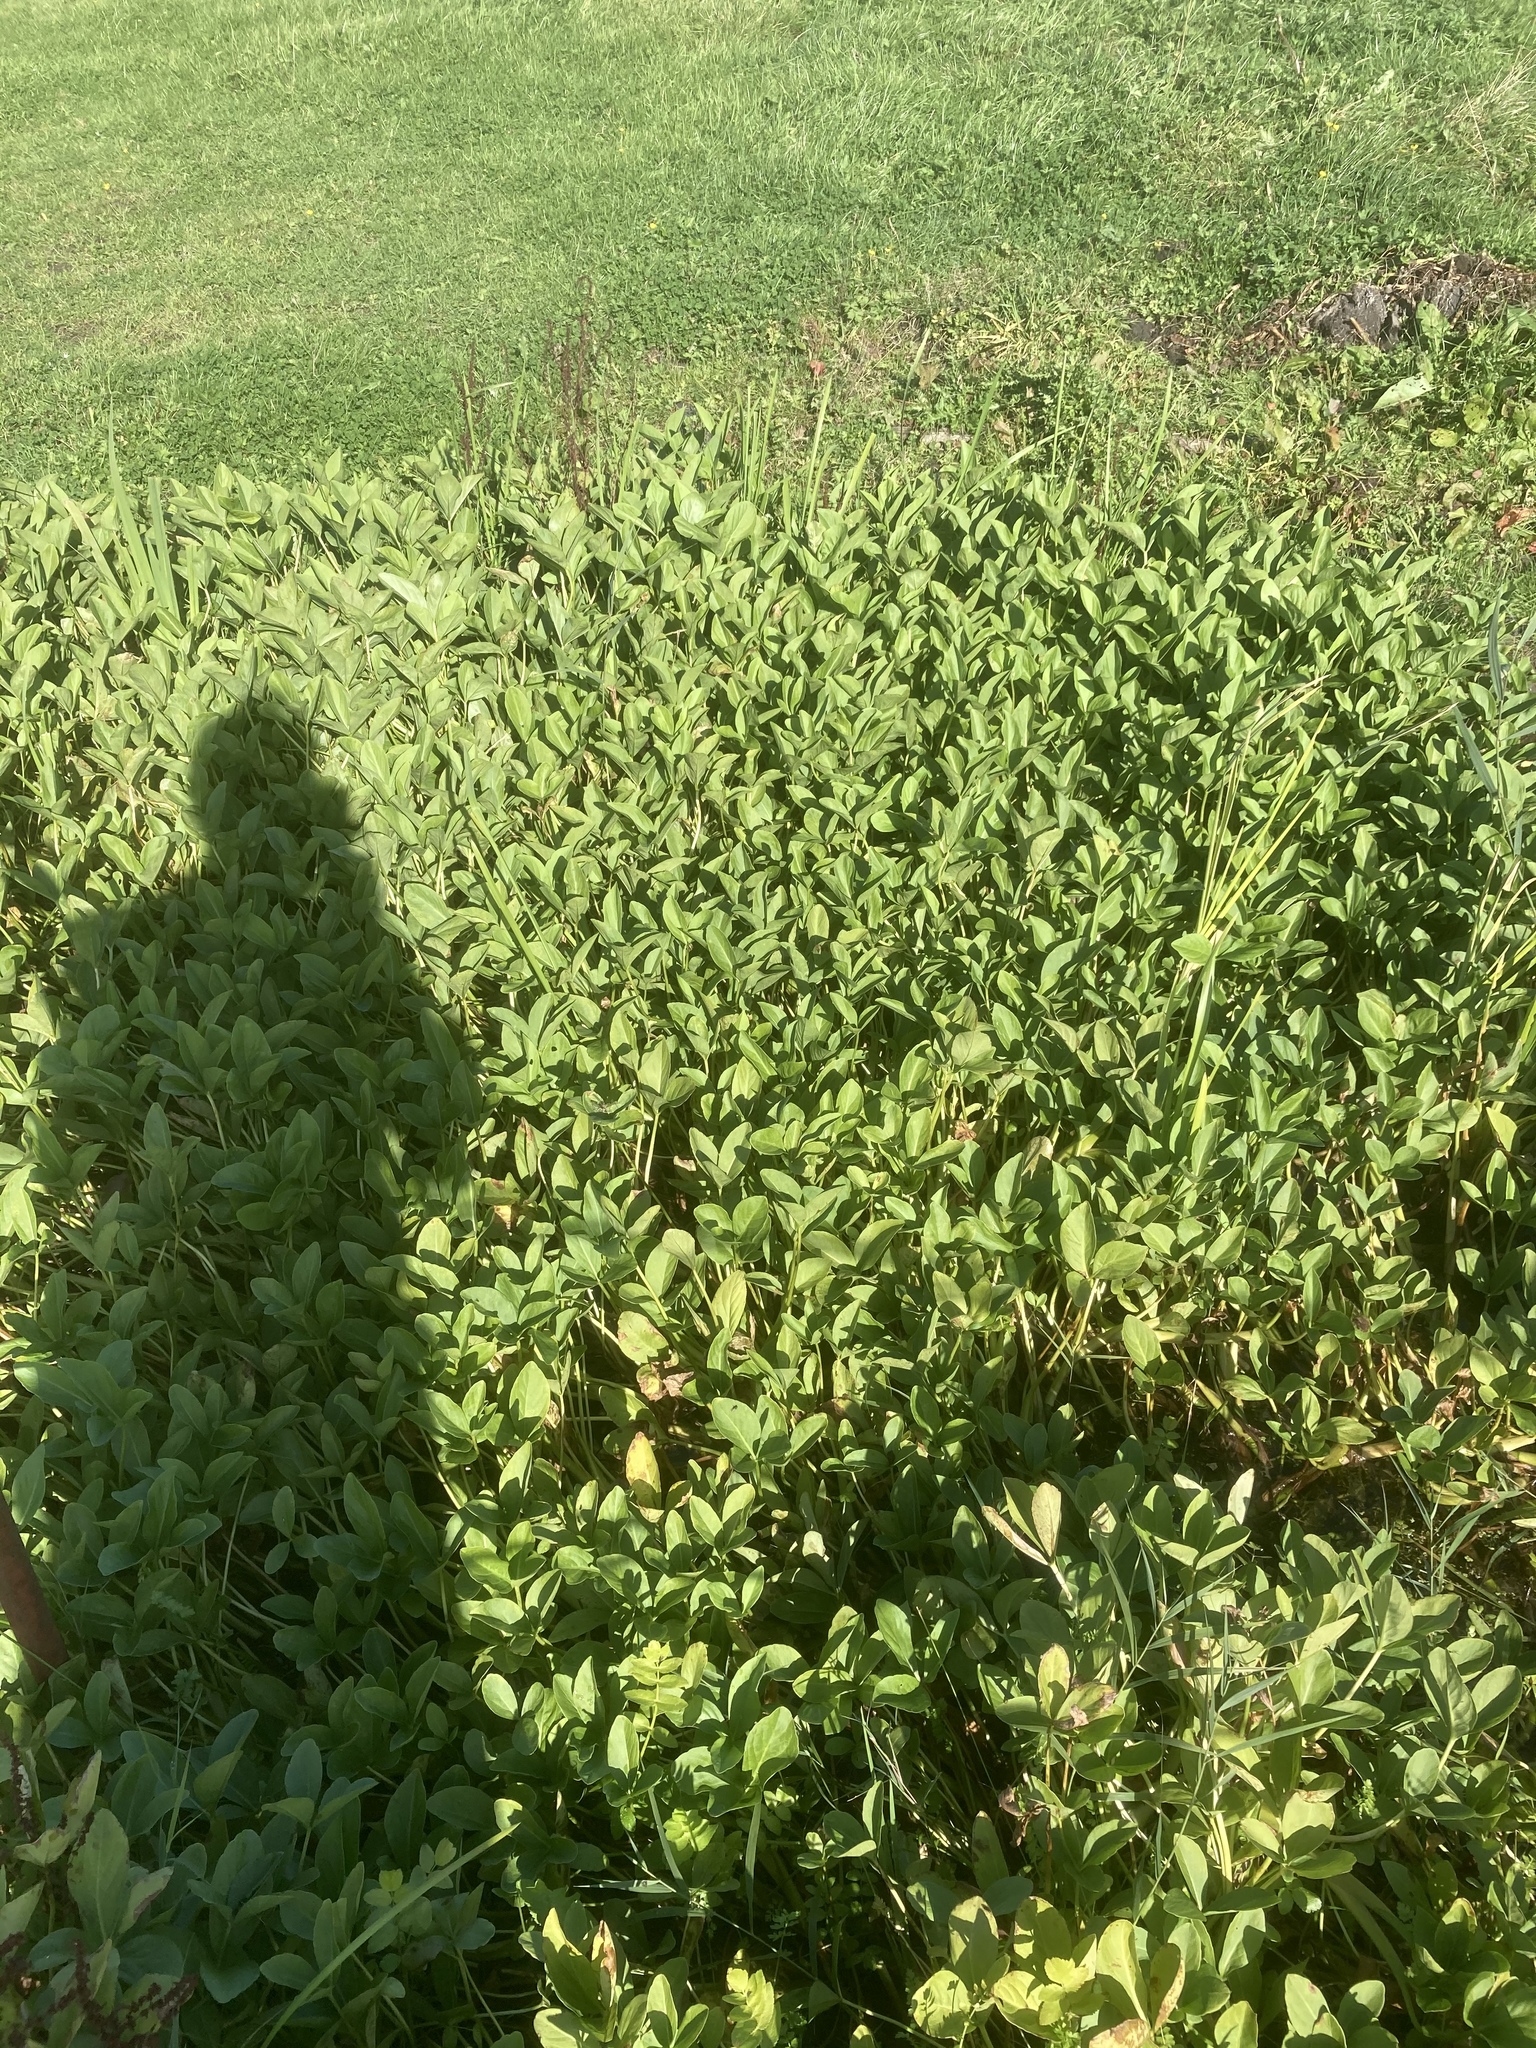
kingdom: Plantae
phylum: Tracheophyta
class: Magnoliopsida
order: Asterales
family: Menyanthaceae
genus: Menyanthes
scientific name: Menyanthes trifoliata
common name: Bogbean
